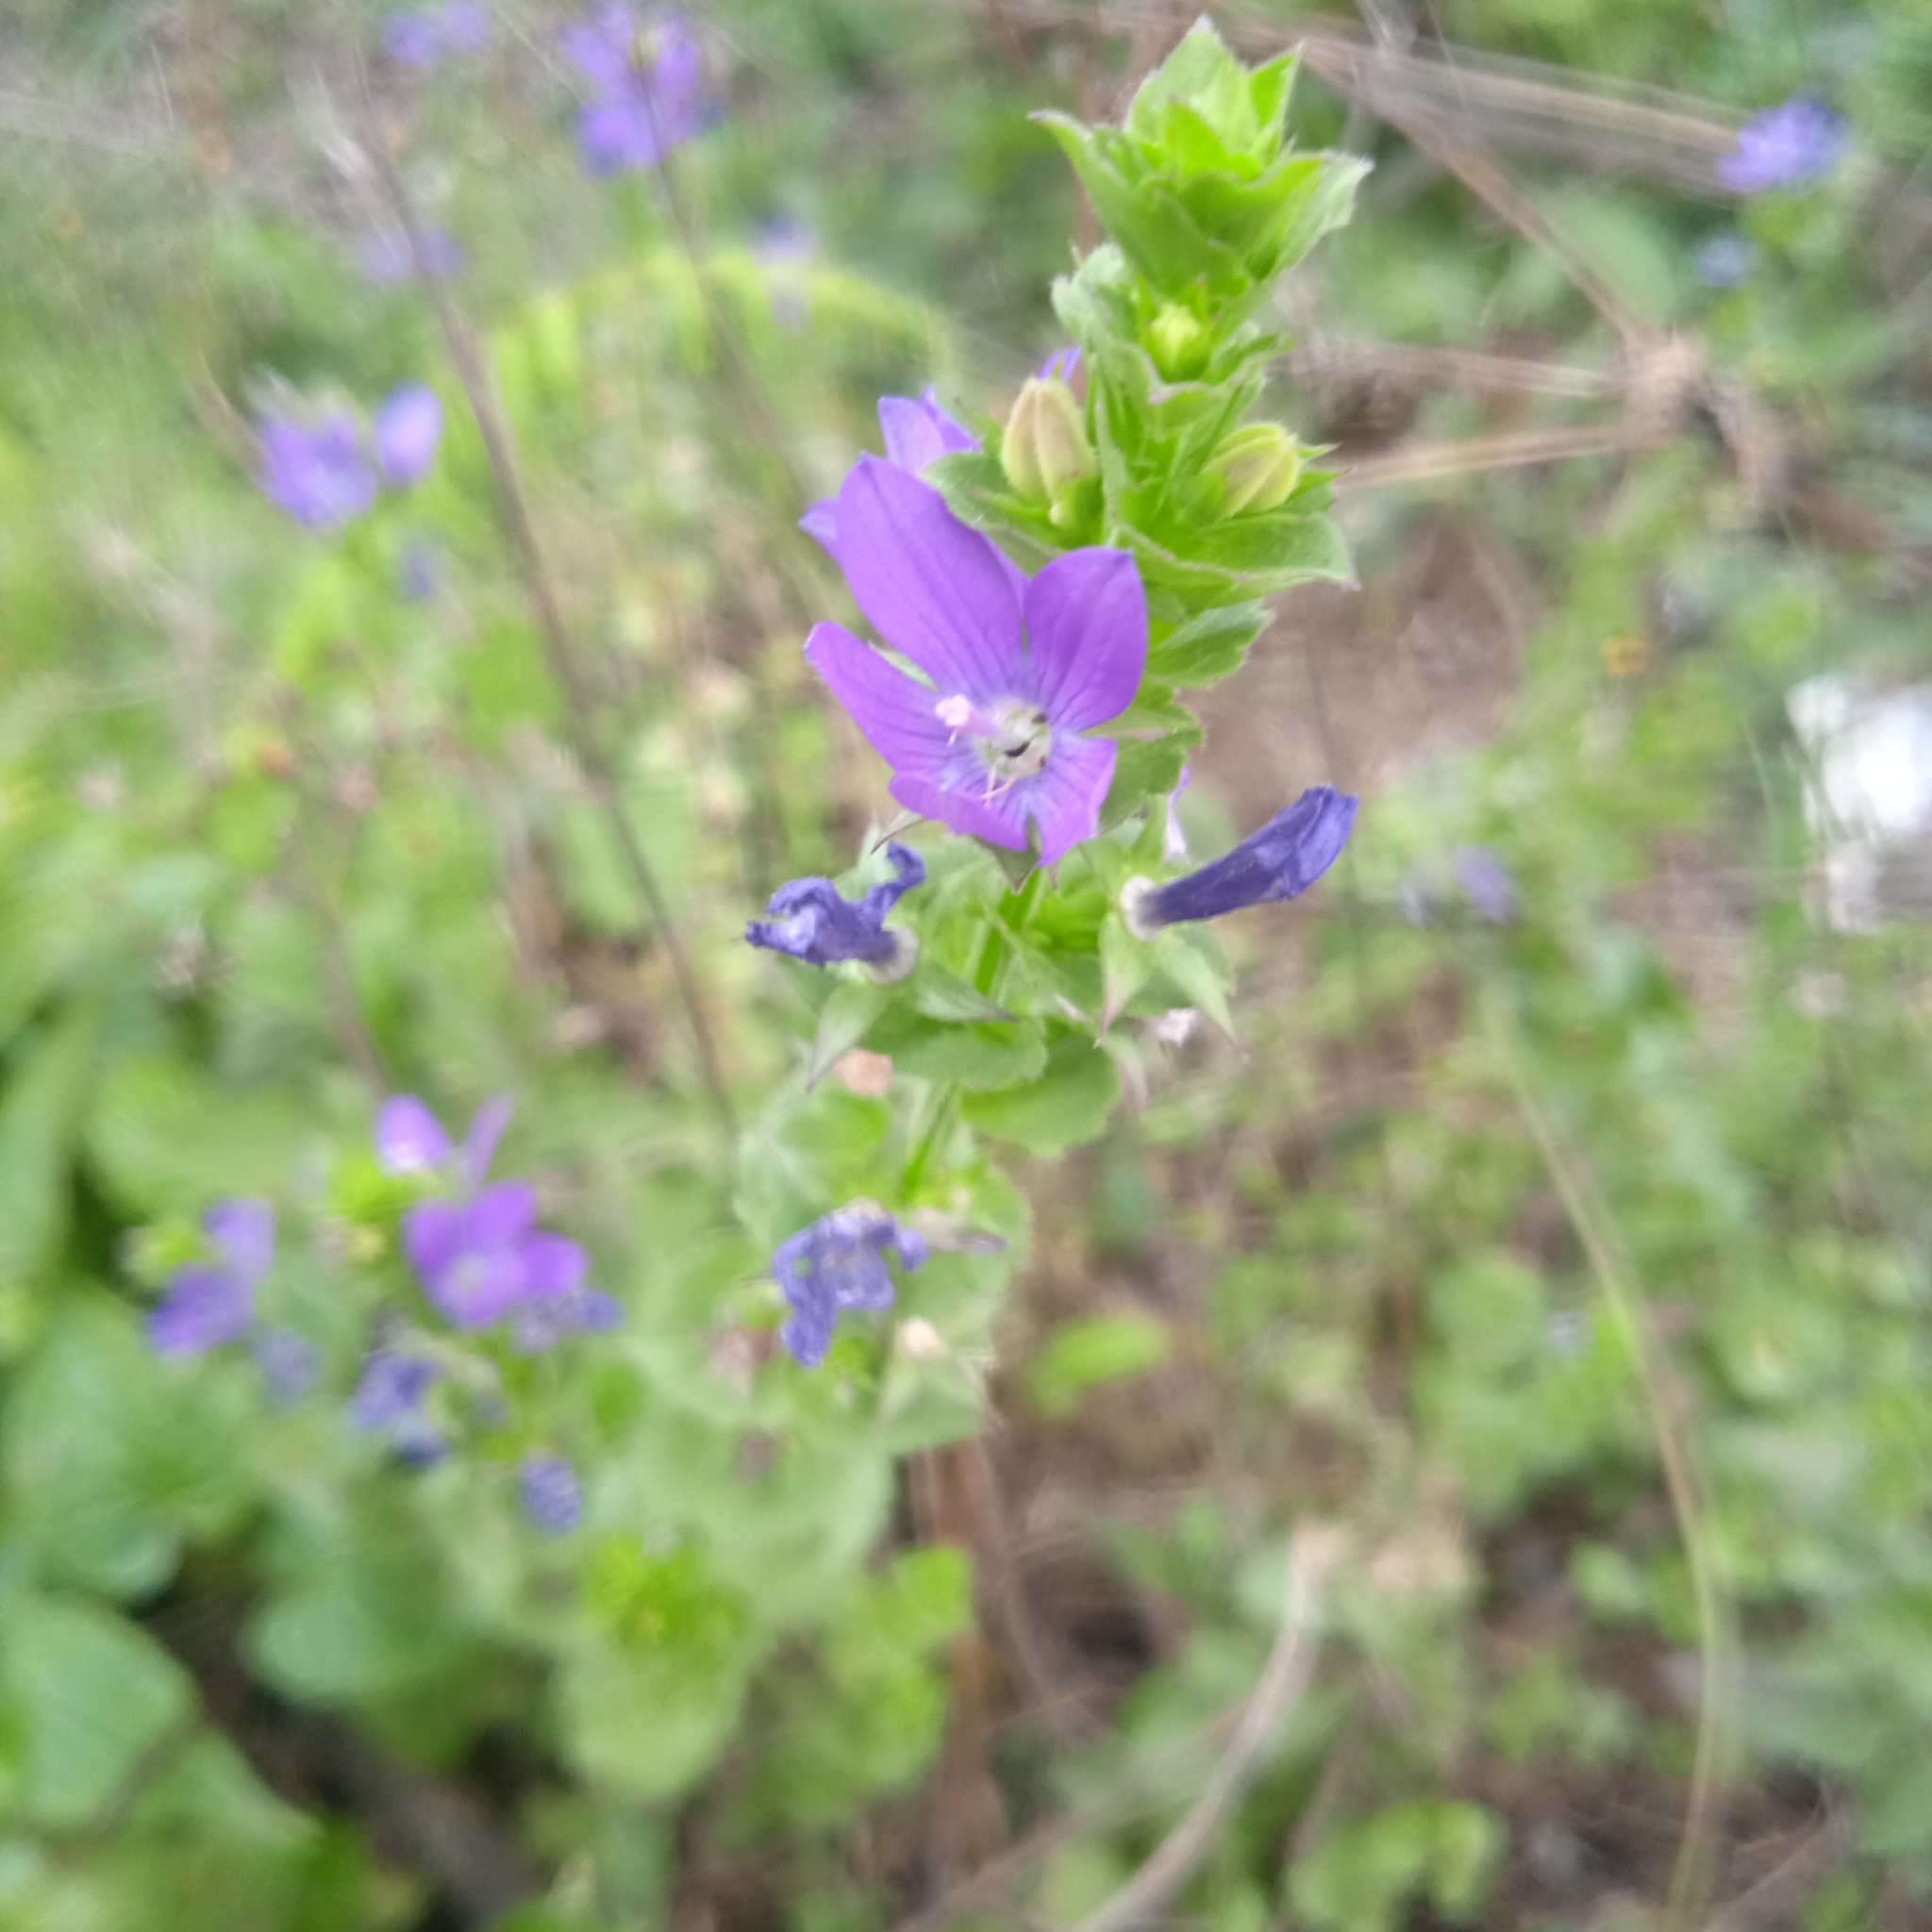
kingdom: Plantae
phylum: Tracheophyta
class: Magnoliopsida
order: Asterales
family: Campanulaceae
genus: Triodanis
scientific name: Triodanis perfoliata
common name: Clasping venus' looking-glass
